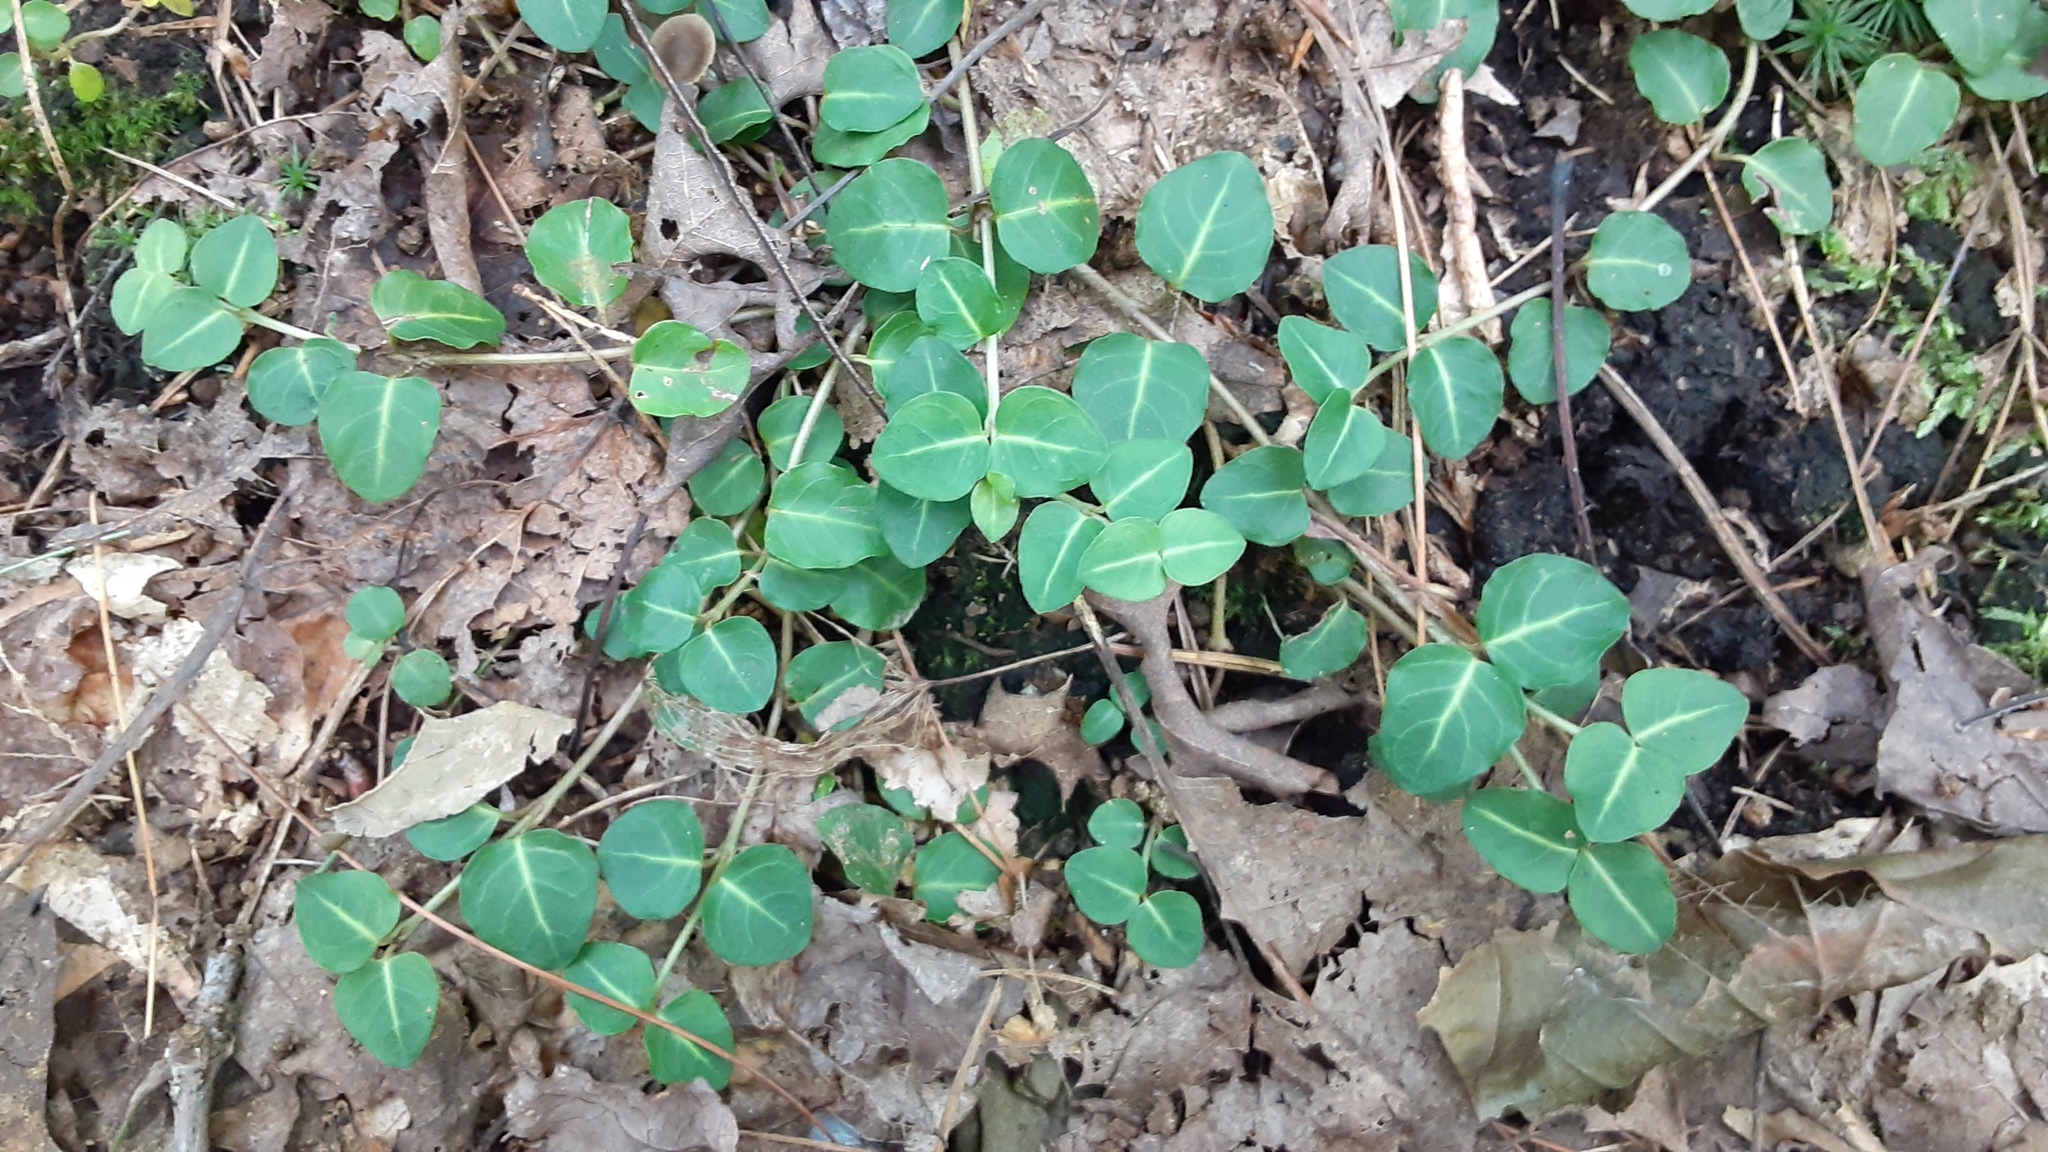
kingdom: Plantae
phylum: Tracheophyta
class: Magnoliopsida
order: Gentianales
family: Rubiaceae
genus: Mitchella
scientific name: Mitchella repens
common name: Partridge-berry
